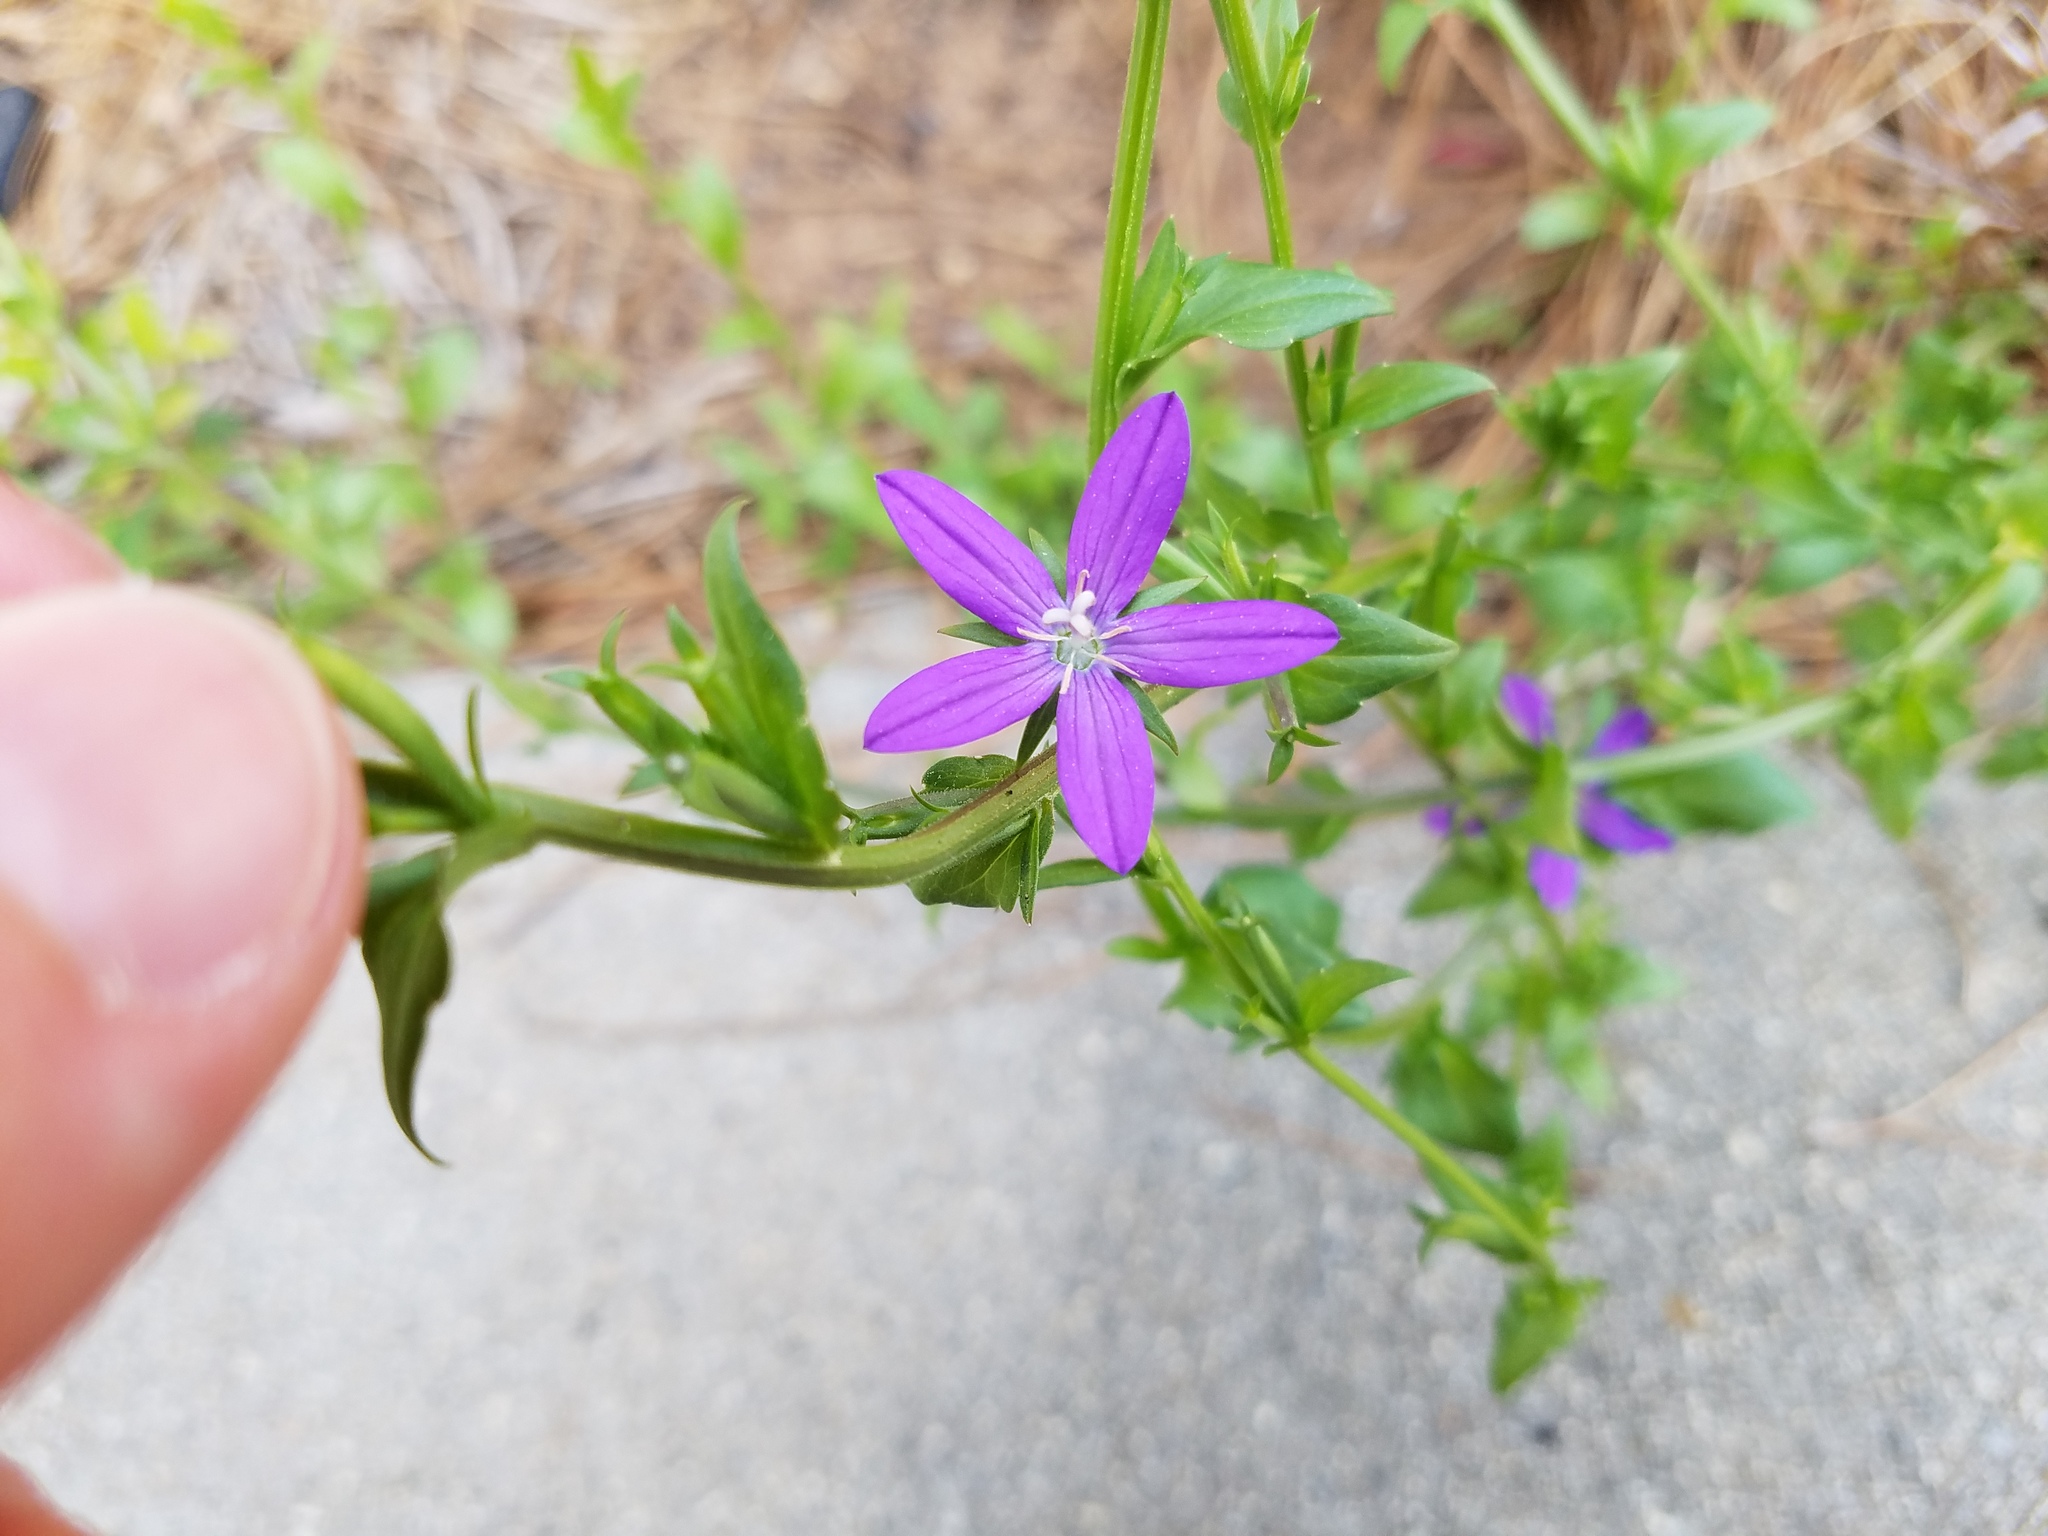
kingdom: Plantae
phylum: Tracheophyta
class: Magnoliopsida
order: Asterales
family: Campanulaceae
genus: Triodanis
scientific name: Triodanis biflora
